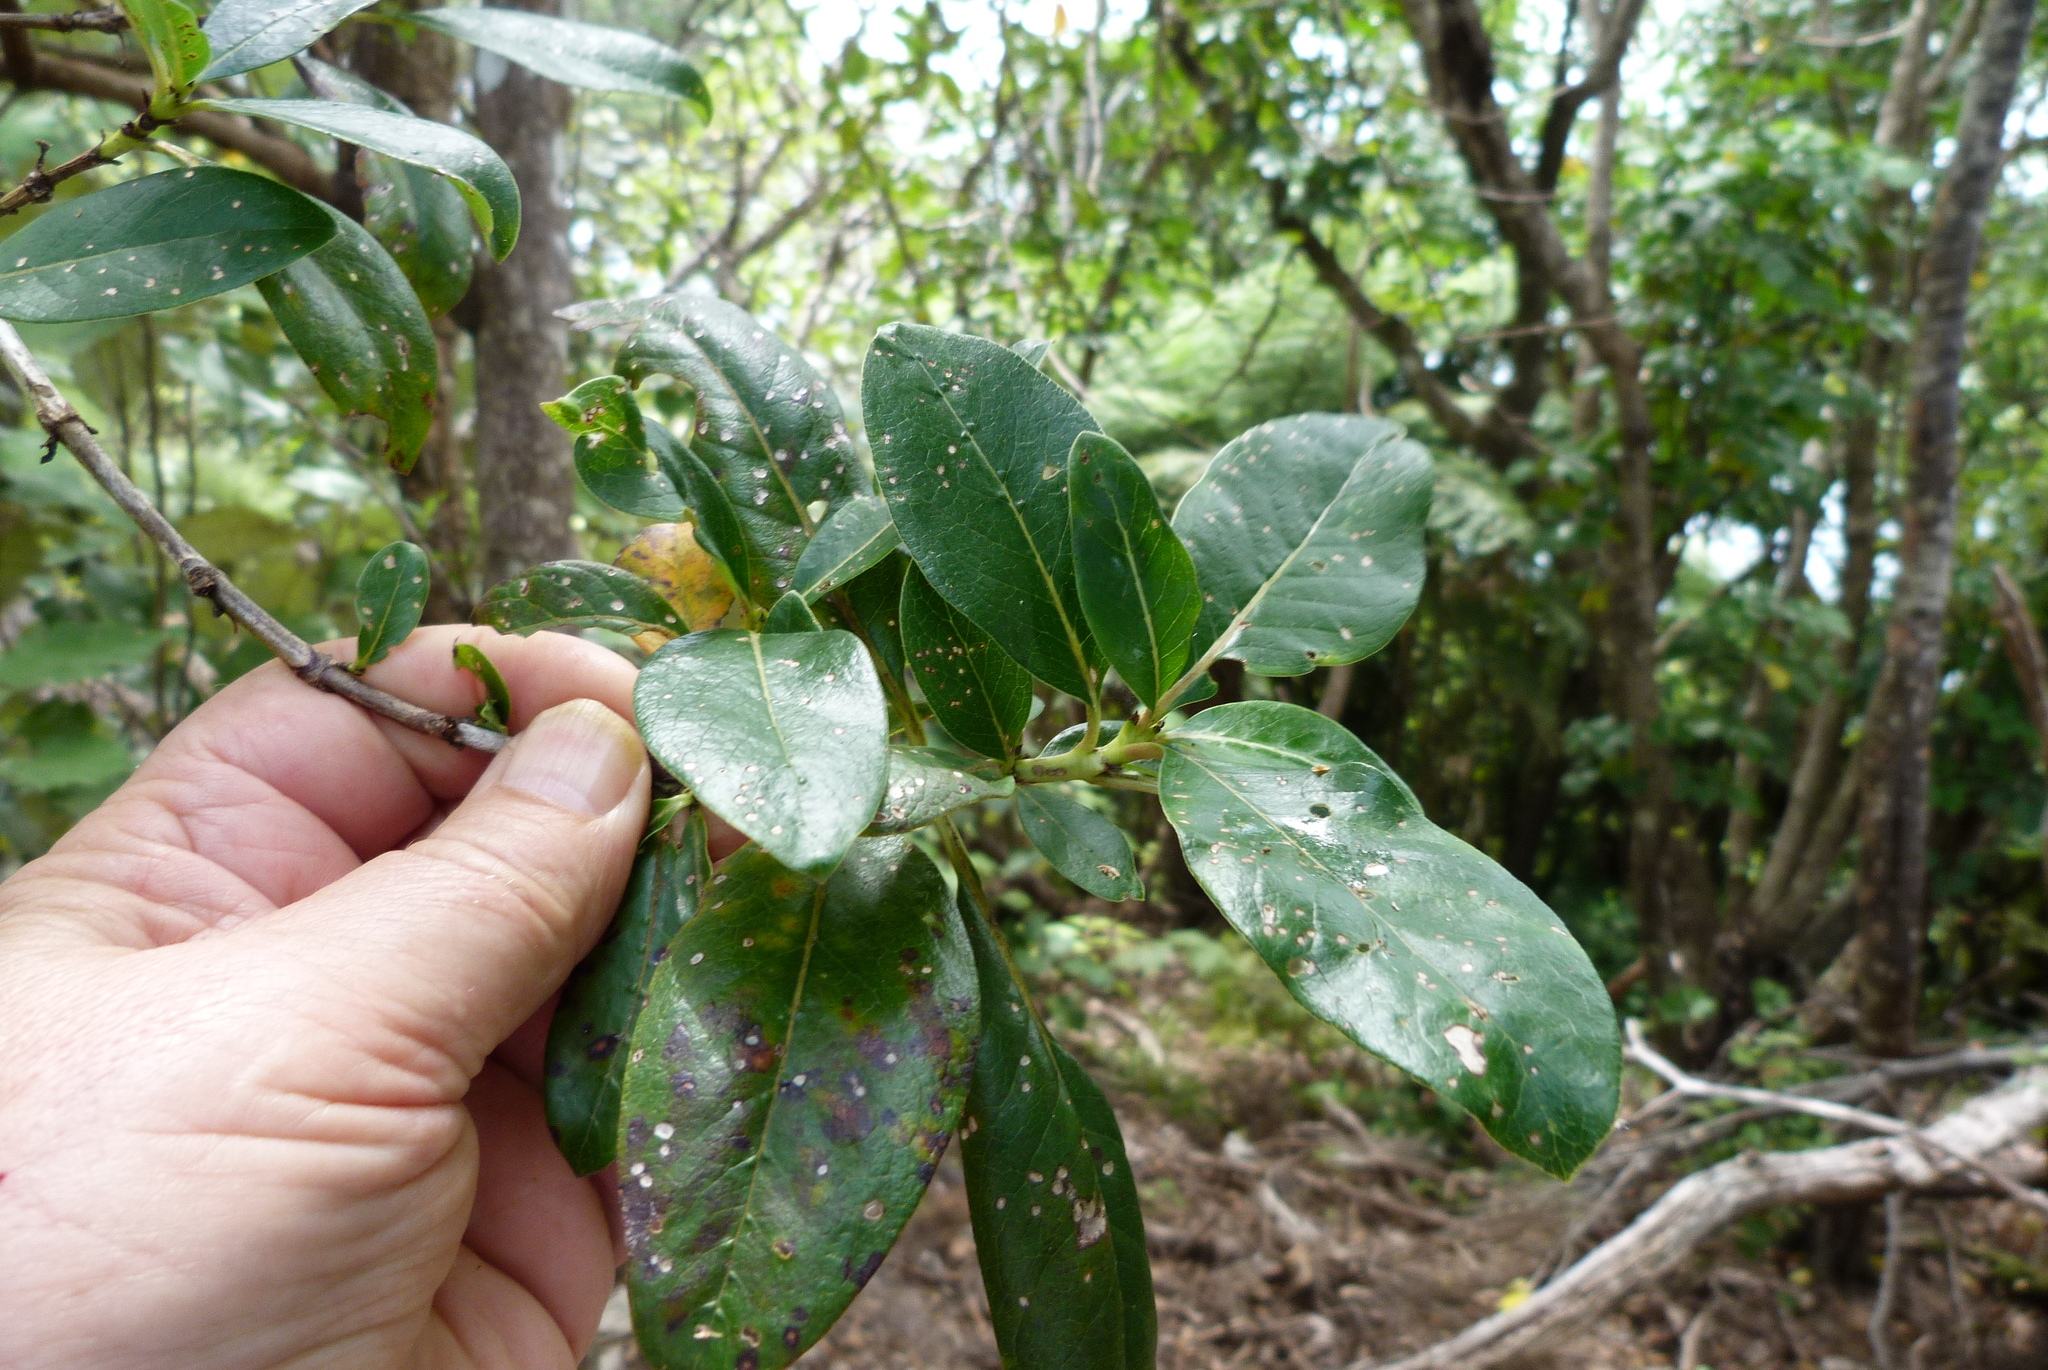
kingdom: Plantae
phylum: Tracheophyta
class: Magnoliopsida
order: Gentianales
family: Rubiaceae
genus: Coprosma
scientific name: Coprosma lucida
